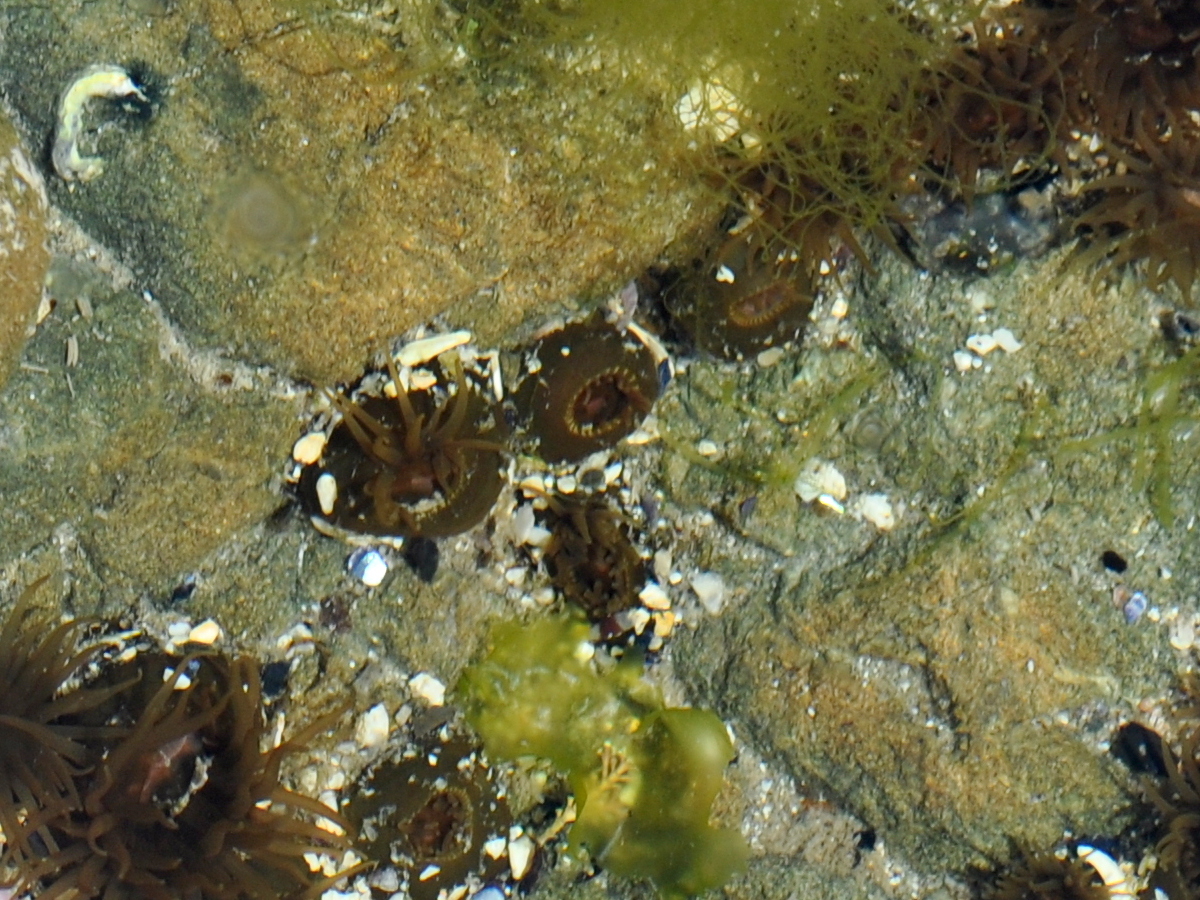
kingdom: Animalia
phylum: Cnidaria
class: Anthozoa
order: Actiniaria
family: Actiniidae
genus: Isactinia
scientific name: Isactinia olivacea
